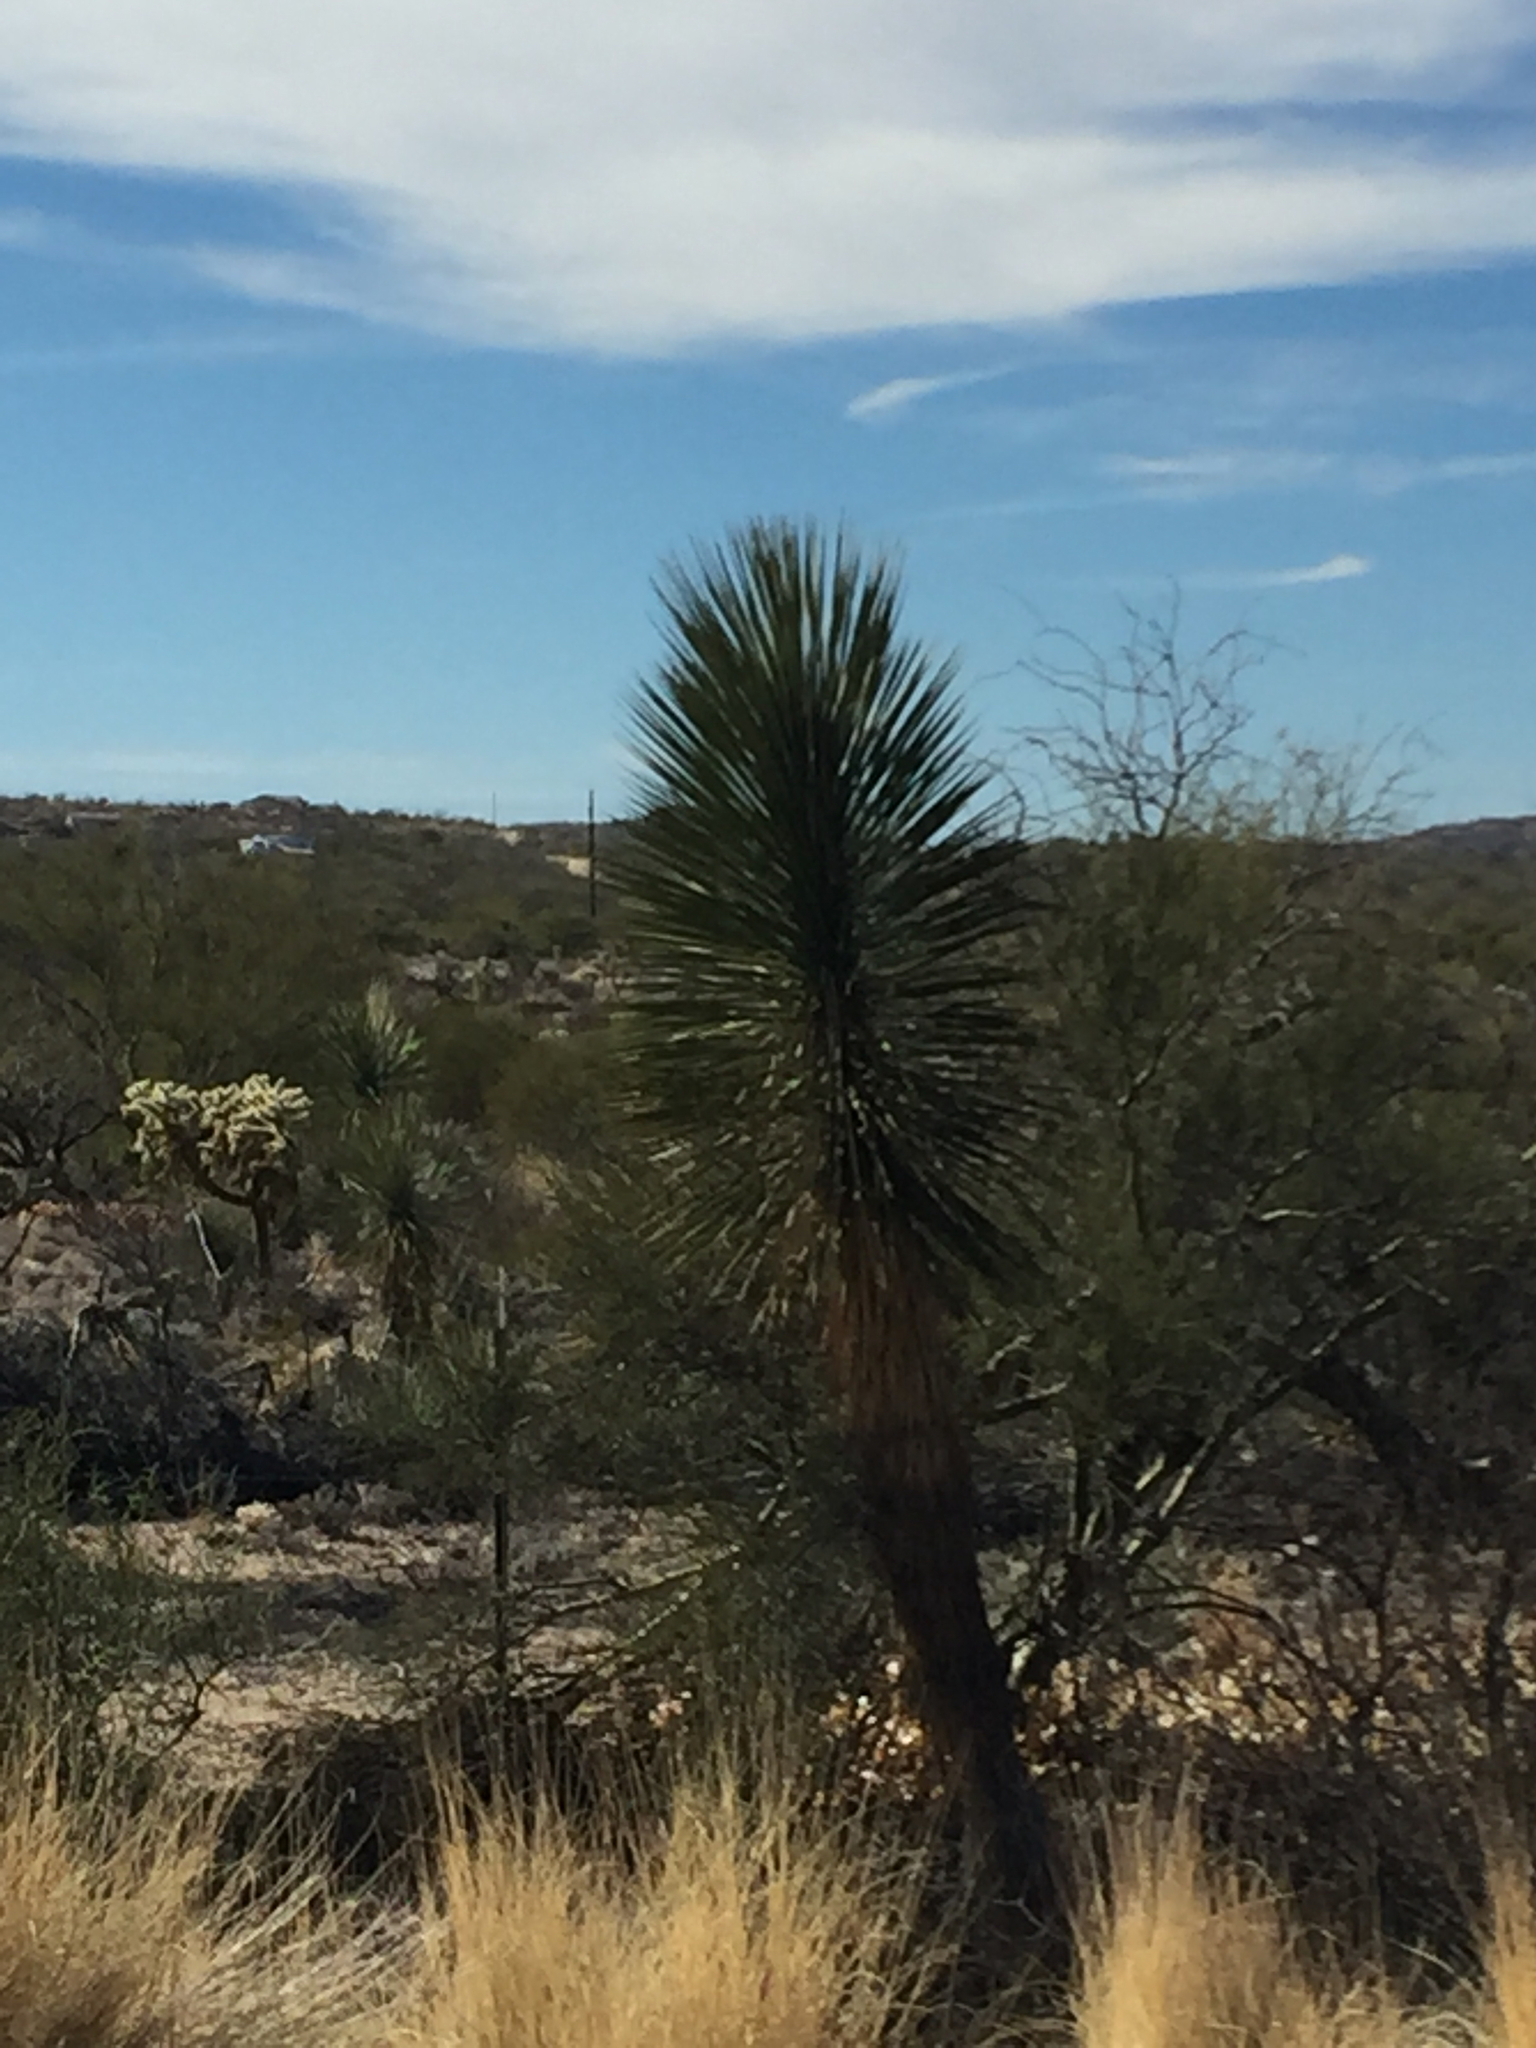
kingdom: Plantae
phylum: Tracheophyta
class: Liliopsida
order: Asparagales
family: Asparagaceae
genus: Yucca
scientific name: Yucca elata
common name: Palmella
